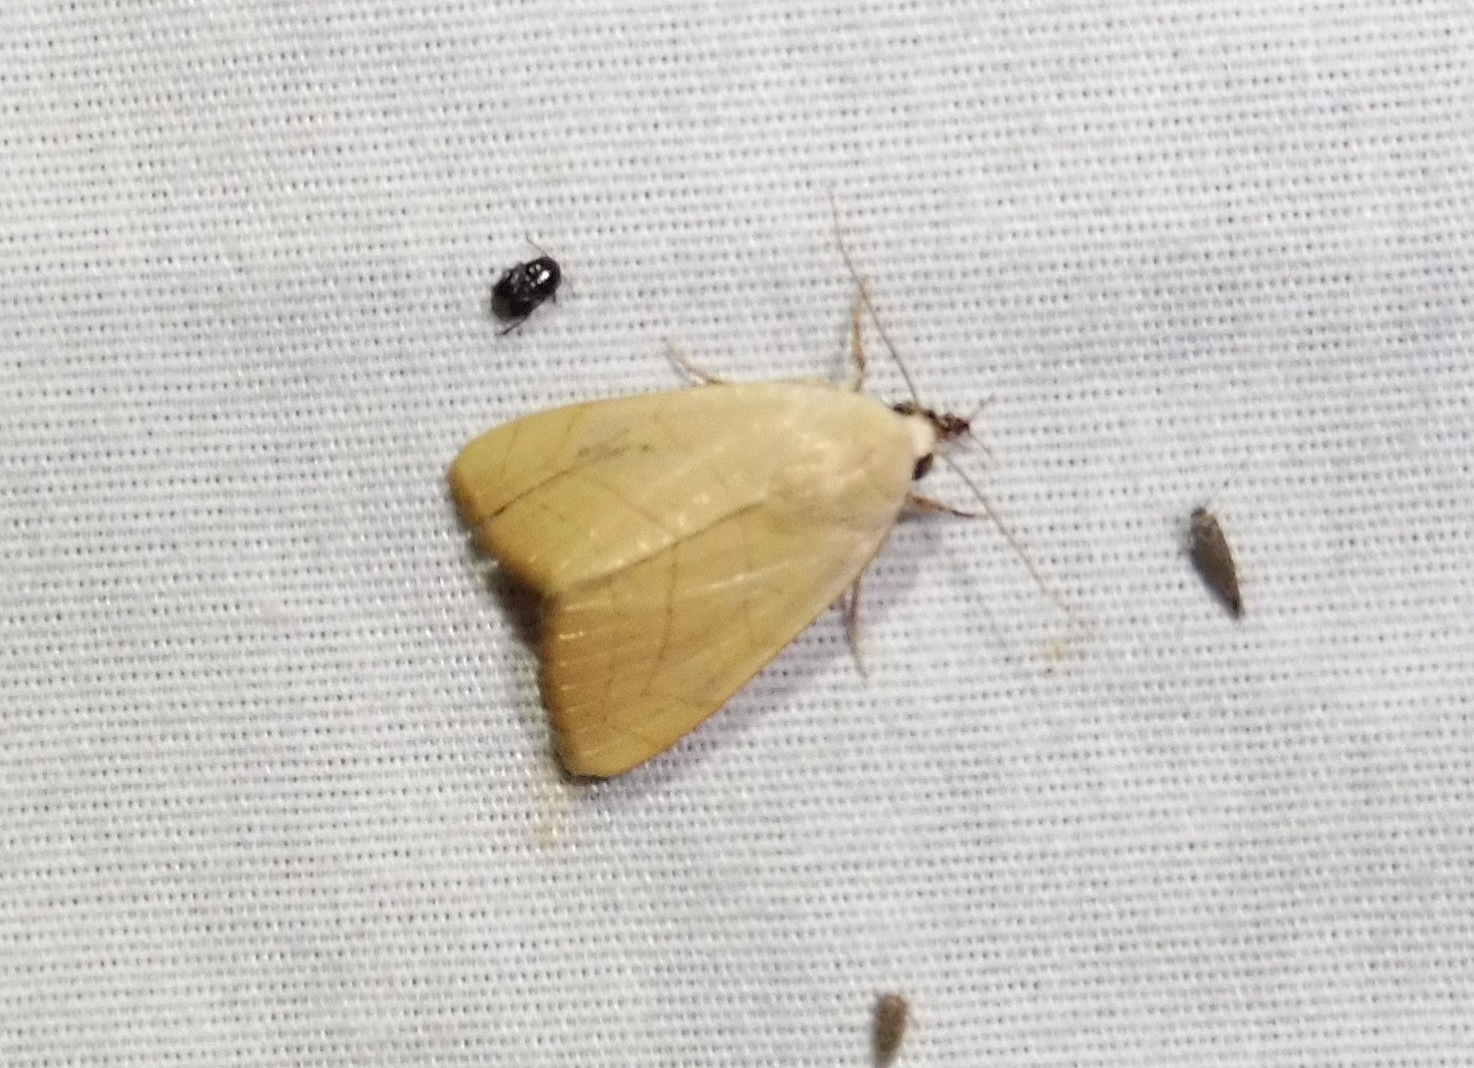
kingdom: Animalia
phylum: Arthropoda
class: Insecta
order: Lepidoptera
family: Noctuidae
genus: Bagisara
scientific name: Bagisara buxea
